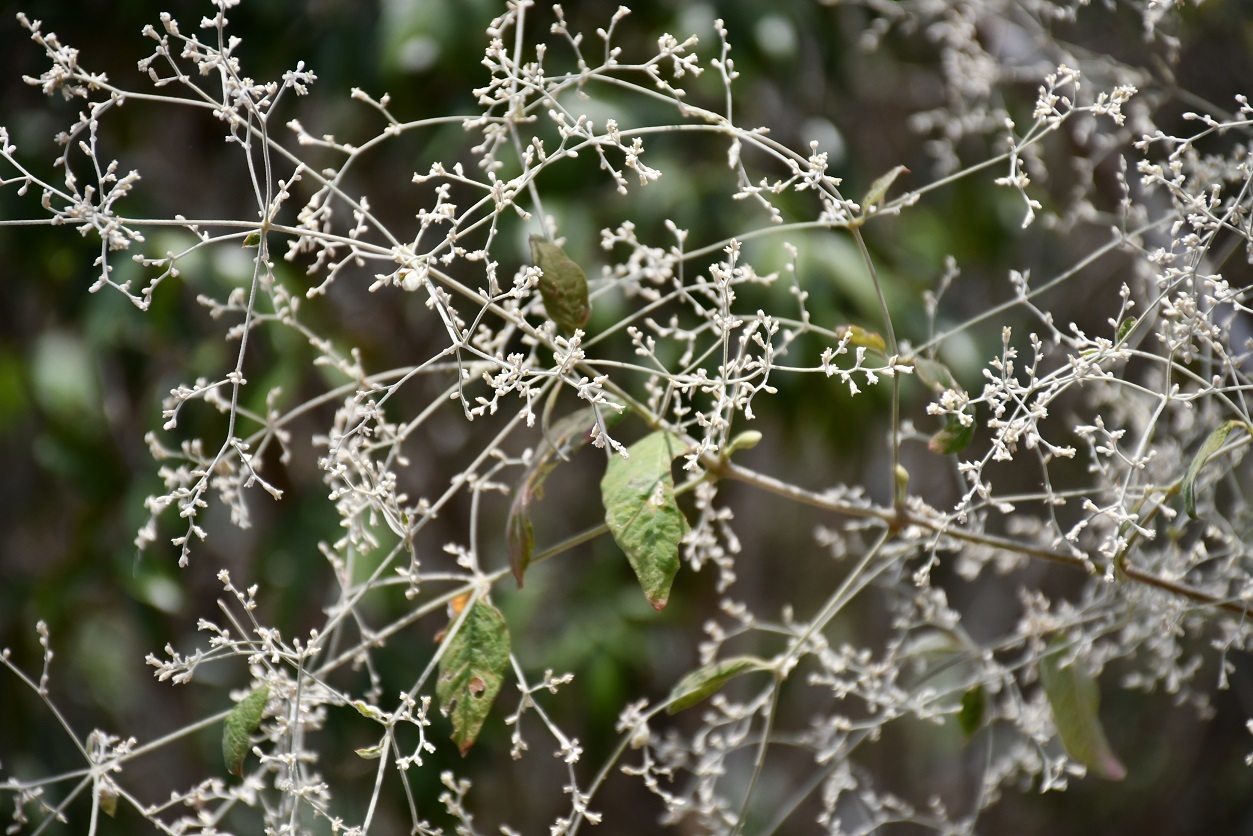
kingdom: Plantae
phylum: Tracheophyta
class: Magnoliopsida
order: Caryophyllales
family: Amaranthaceae
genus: Iresine
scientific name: Iresine latifolia
